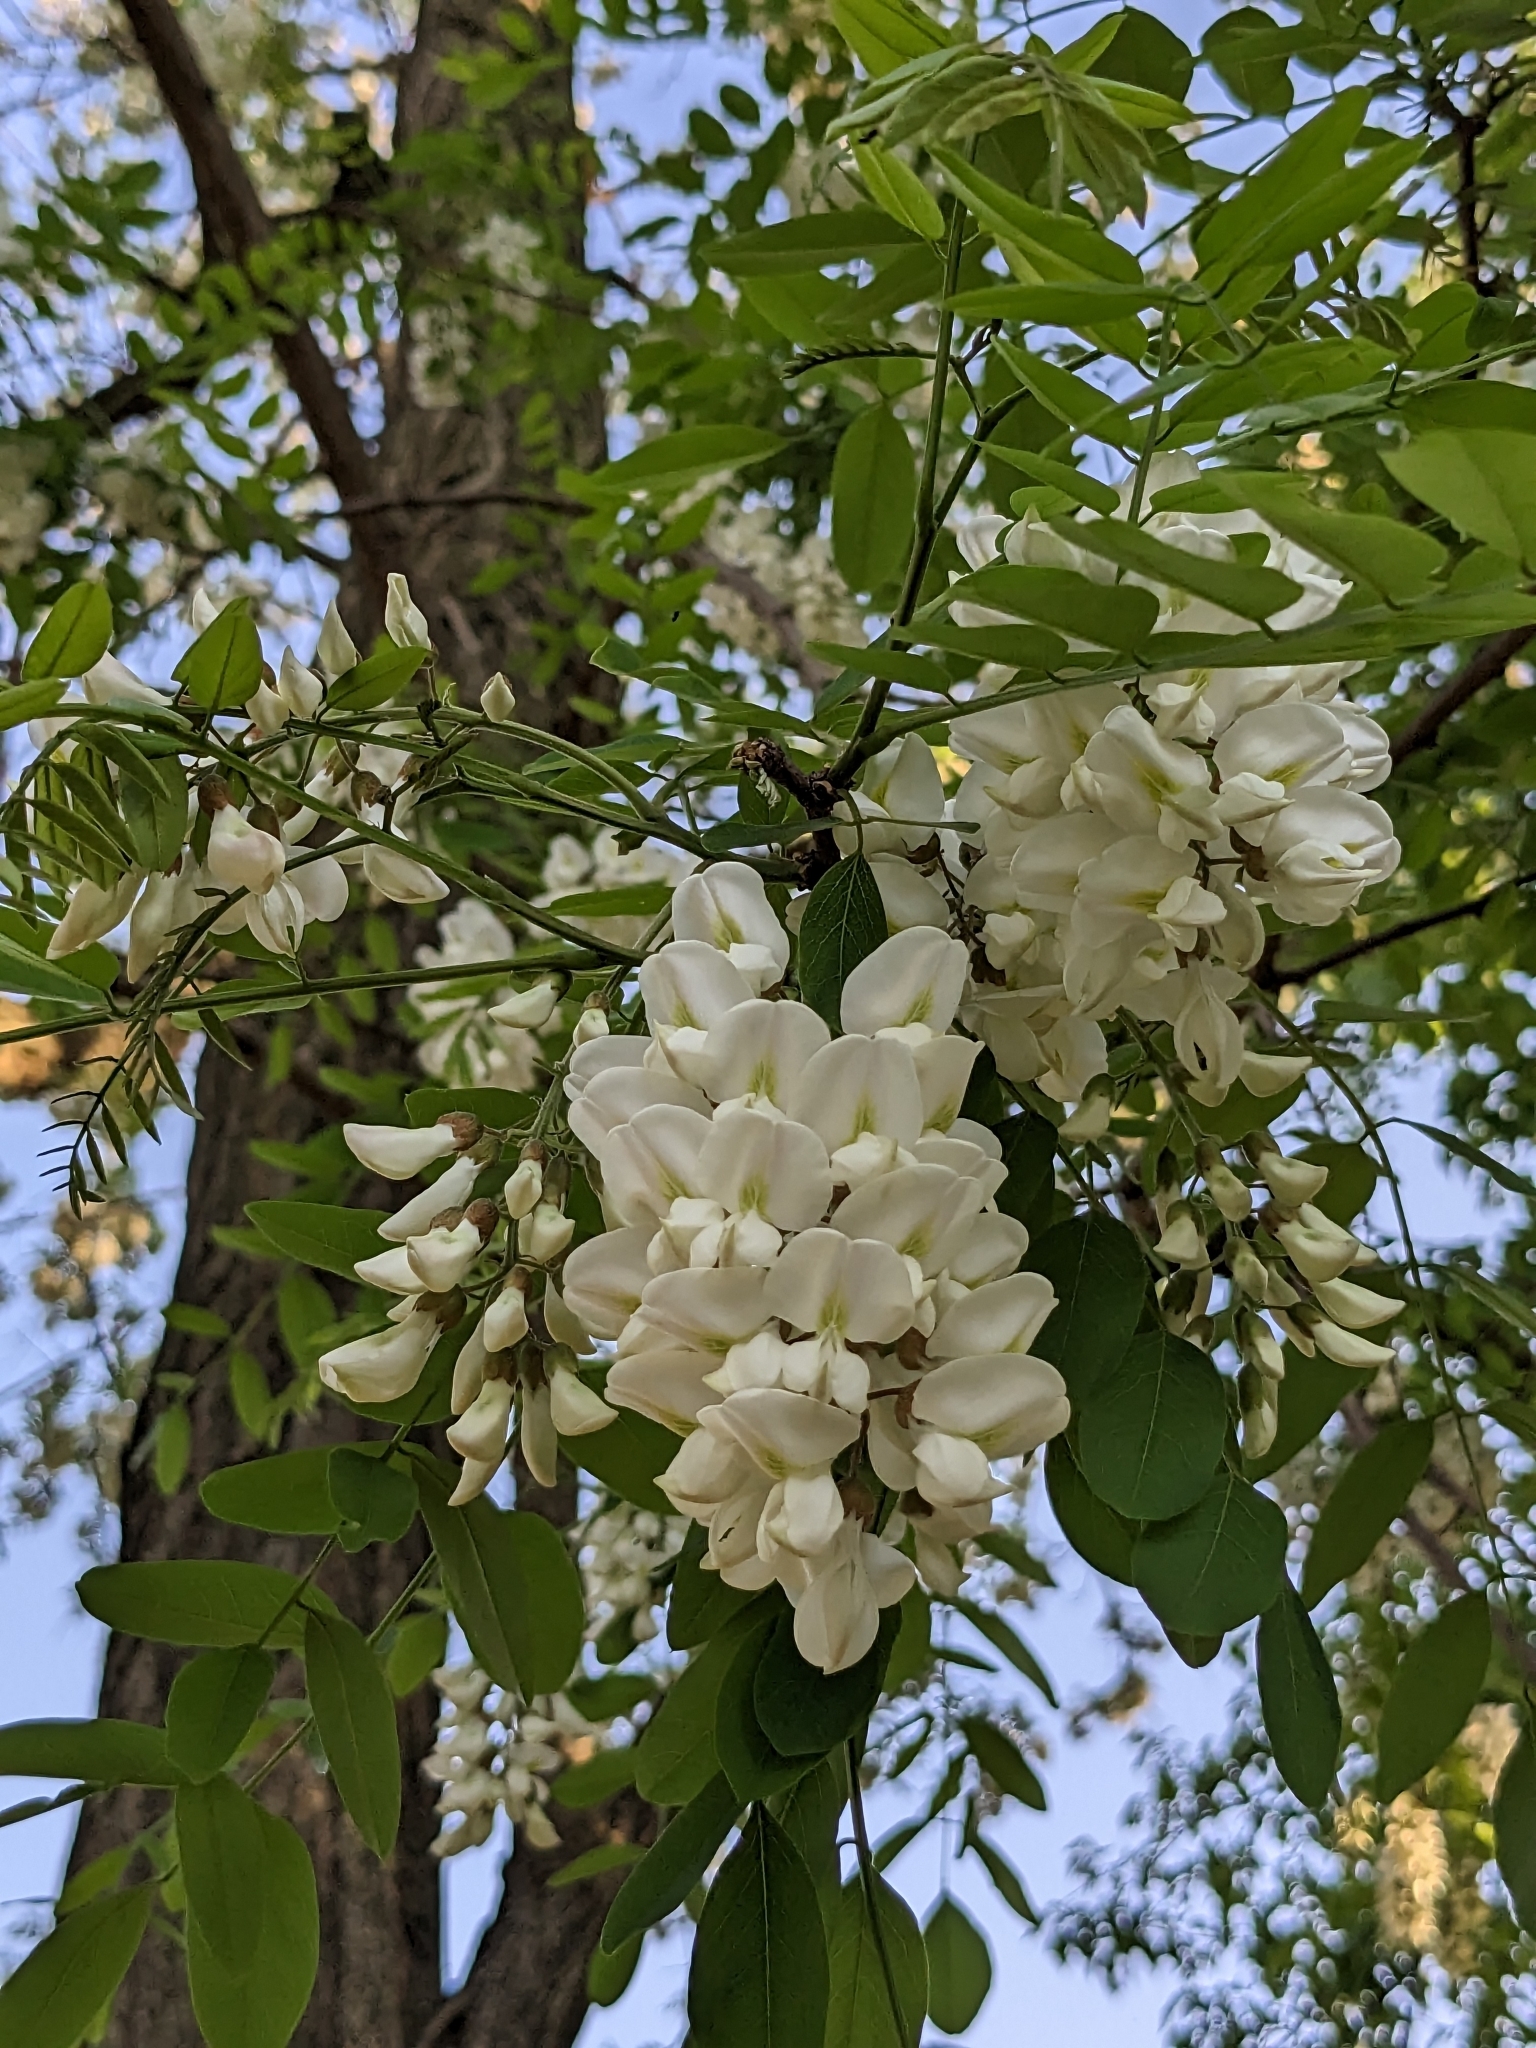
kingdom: Plantae
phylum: Tracheophyta
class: Magnoliopsida
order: Fabales
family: Fabaceae
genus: Robinia
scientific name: Robinia pseudoacacia
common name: Black locust
